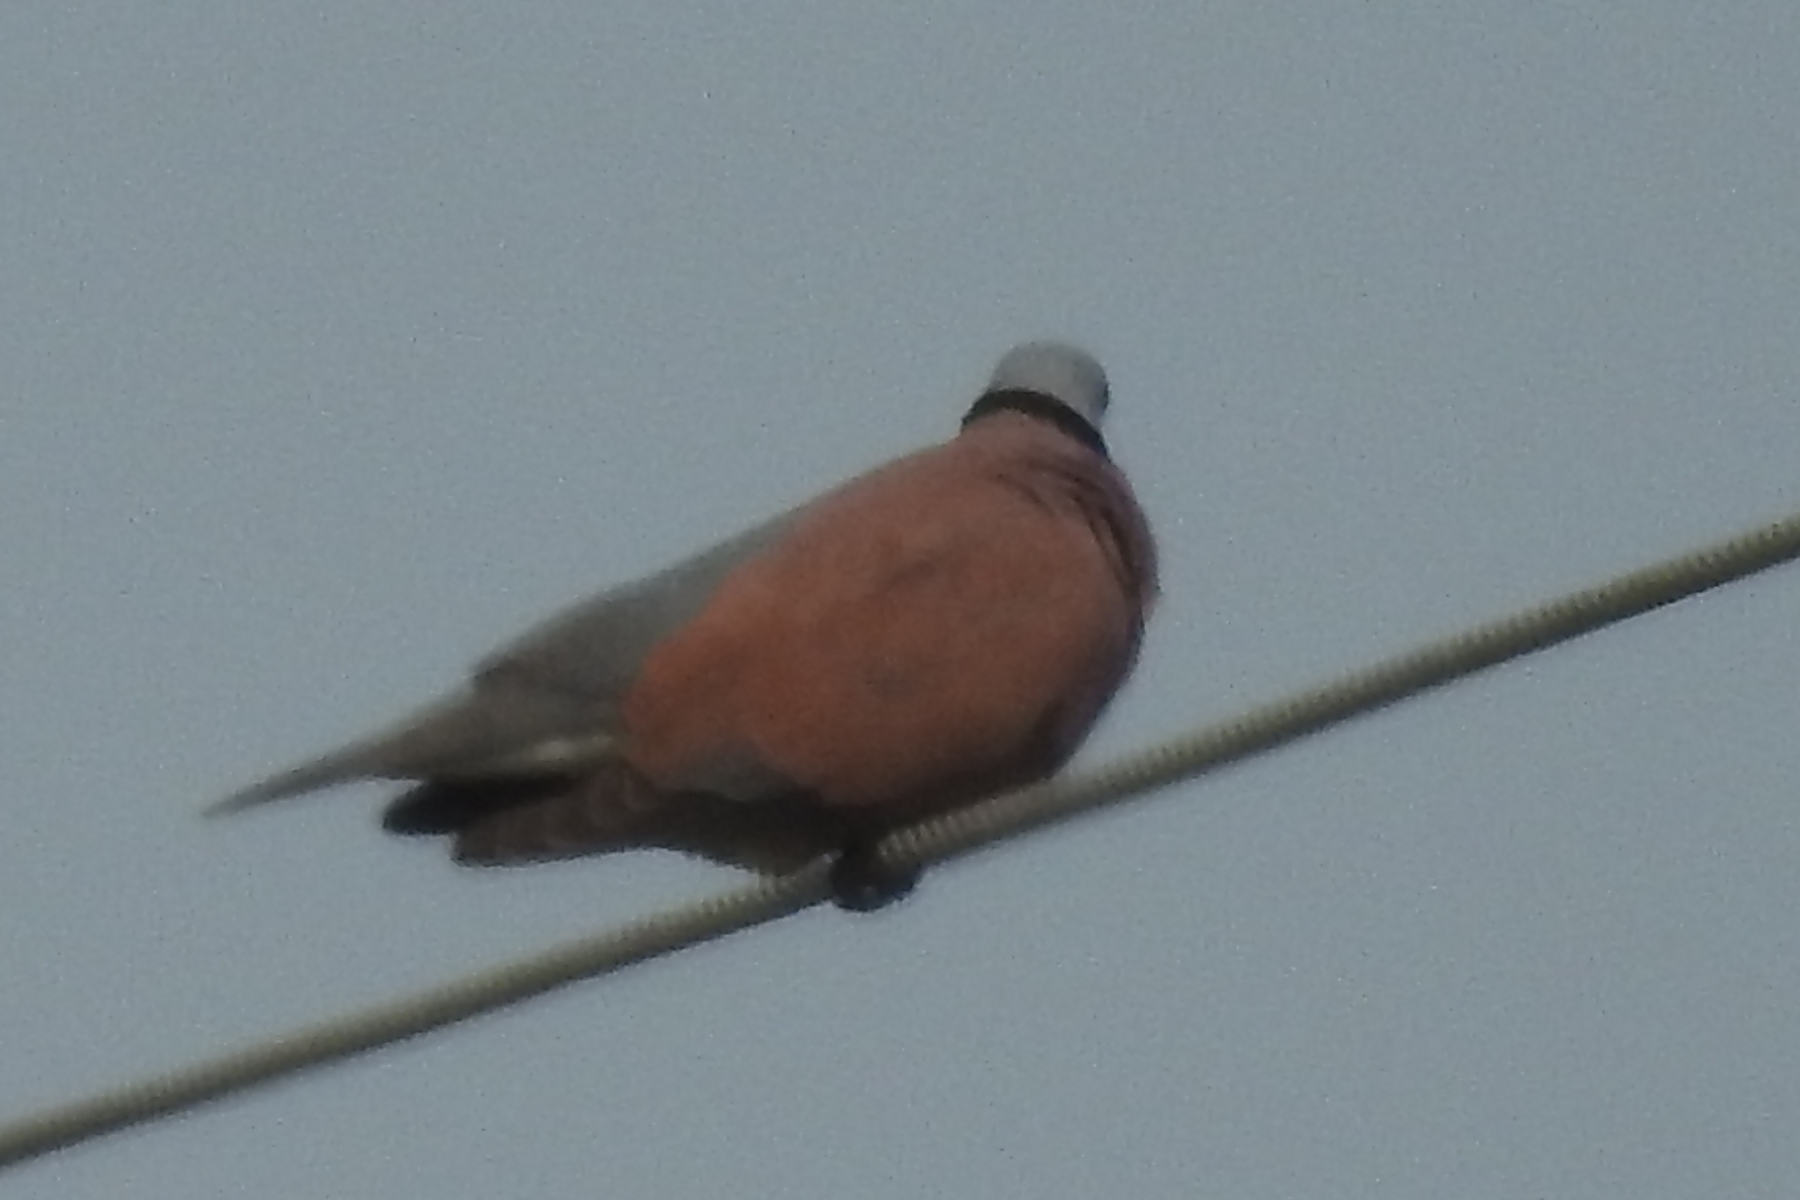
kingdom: Animalia
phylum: Chordata
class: Aves
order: Columbiformes
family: Columbidae
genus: Streptopelia
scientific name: Streptopelia tranquebarica
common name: Red turtle dove
